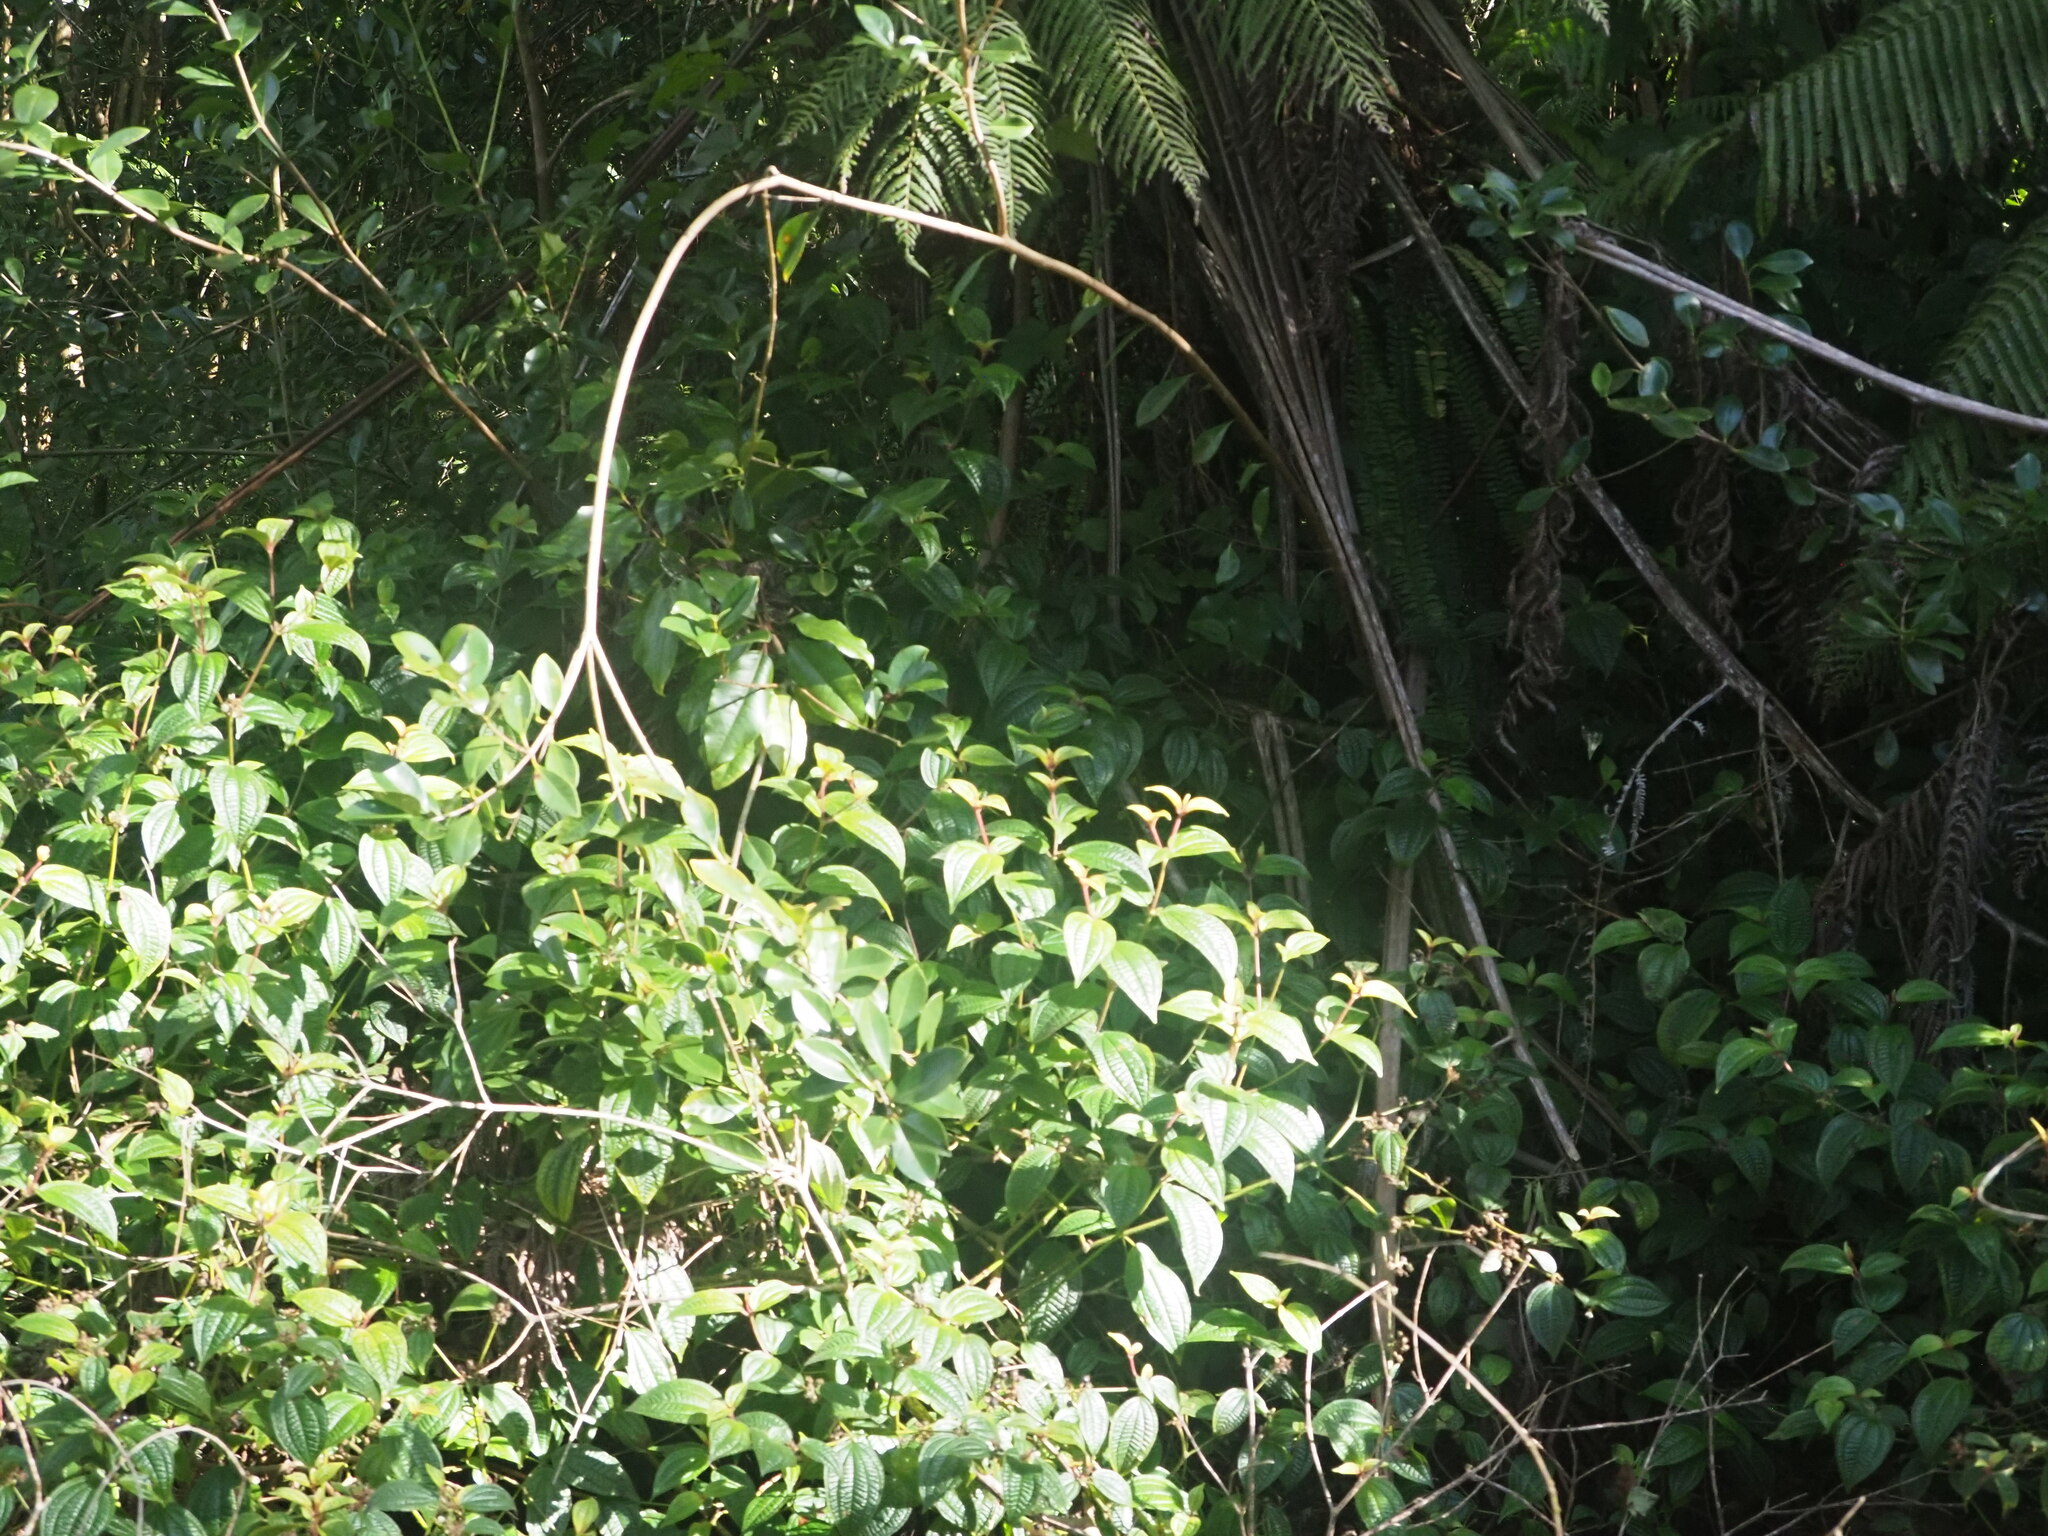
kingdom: Plantae
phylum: Tracheophyta
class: Magnoliopsida
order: Myrtales
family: Melastomataceae
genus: Miconia
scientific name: Miconia crenata
